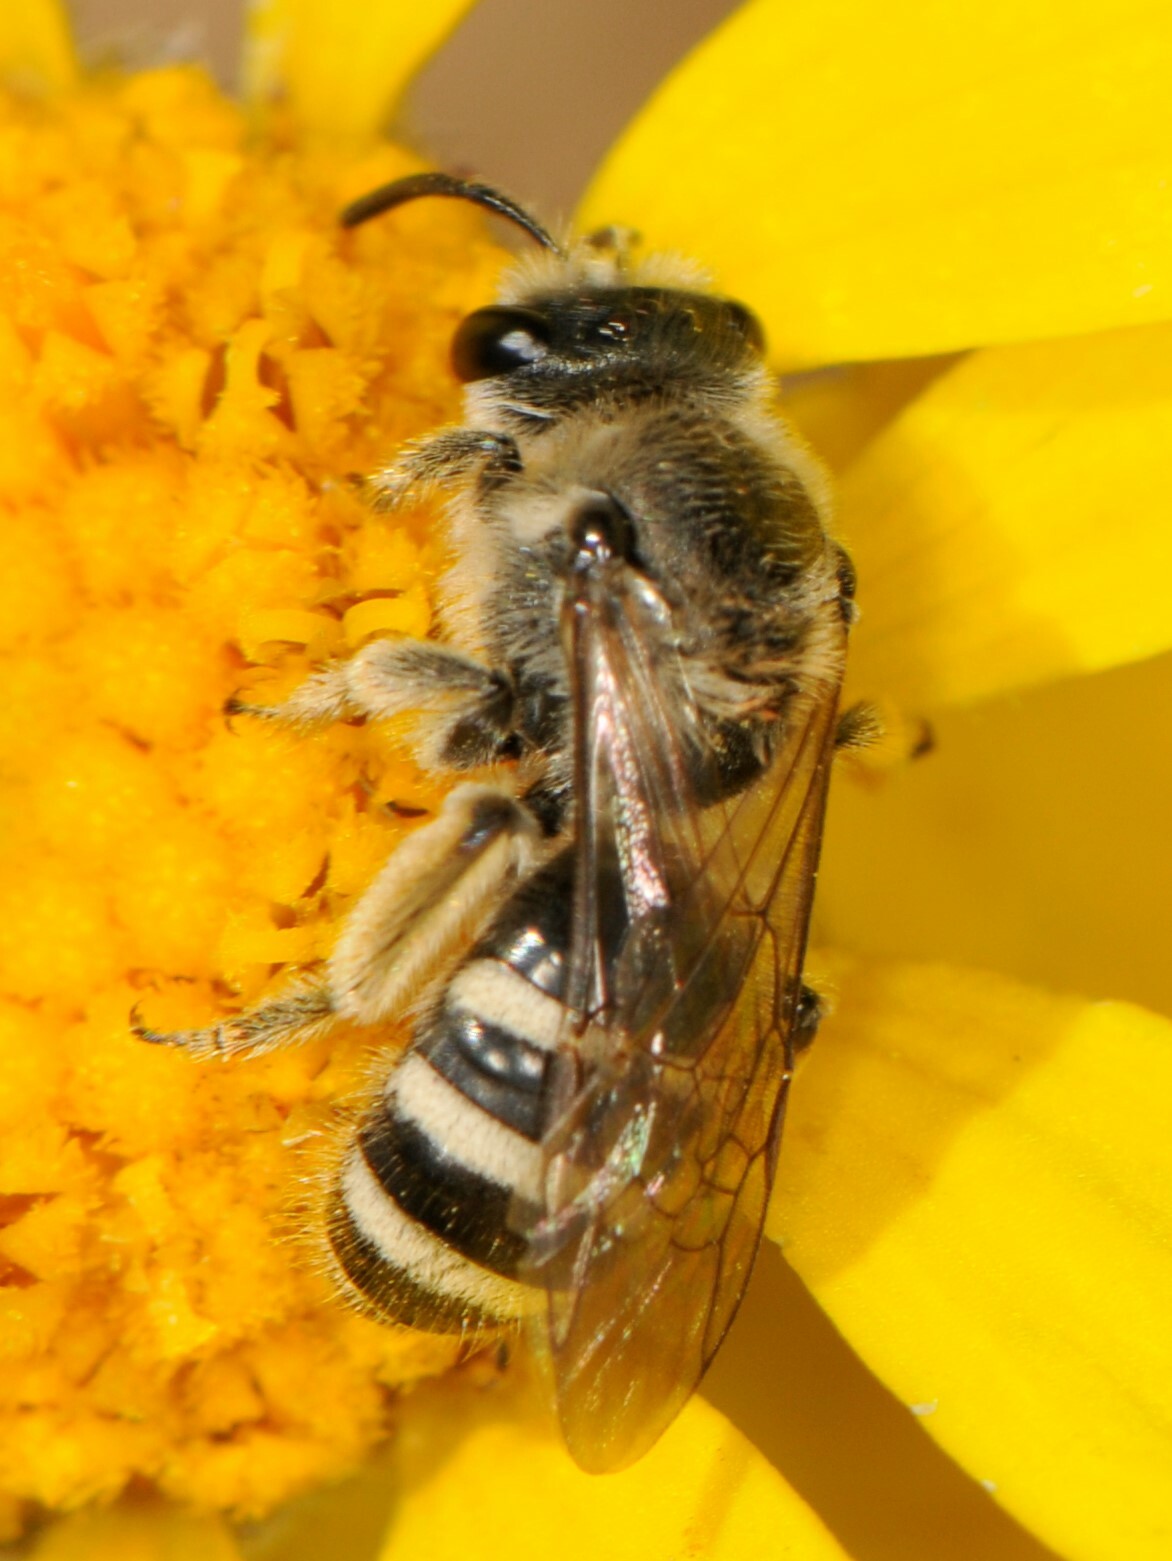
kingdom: Animalia
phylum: Arthropoda
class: Insecta
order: Hymenoptera
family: Halictidae
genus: Lasioglossum
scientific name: Lasioglossum
